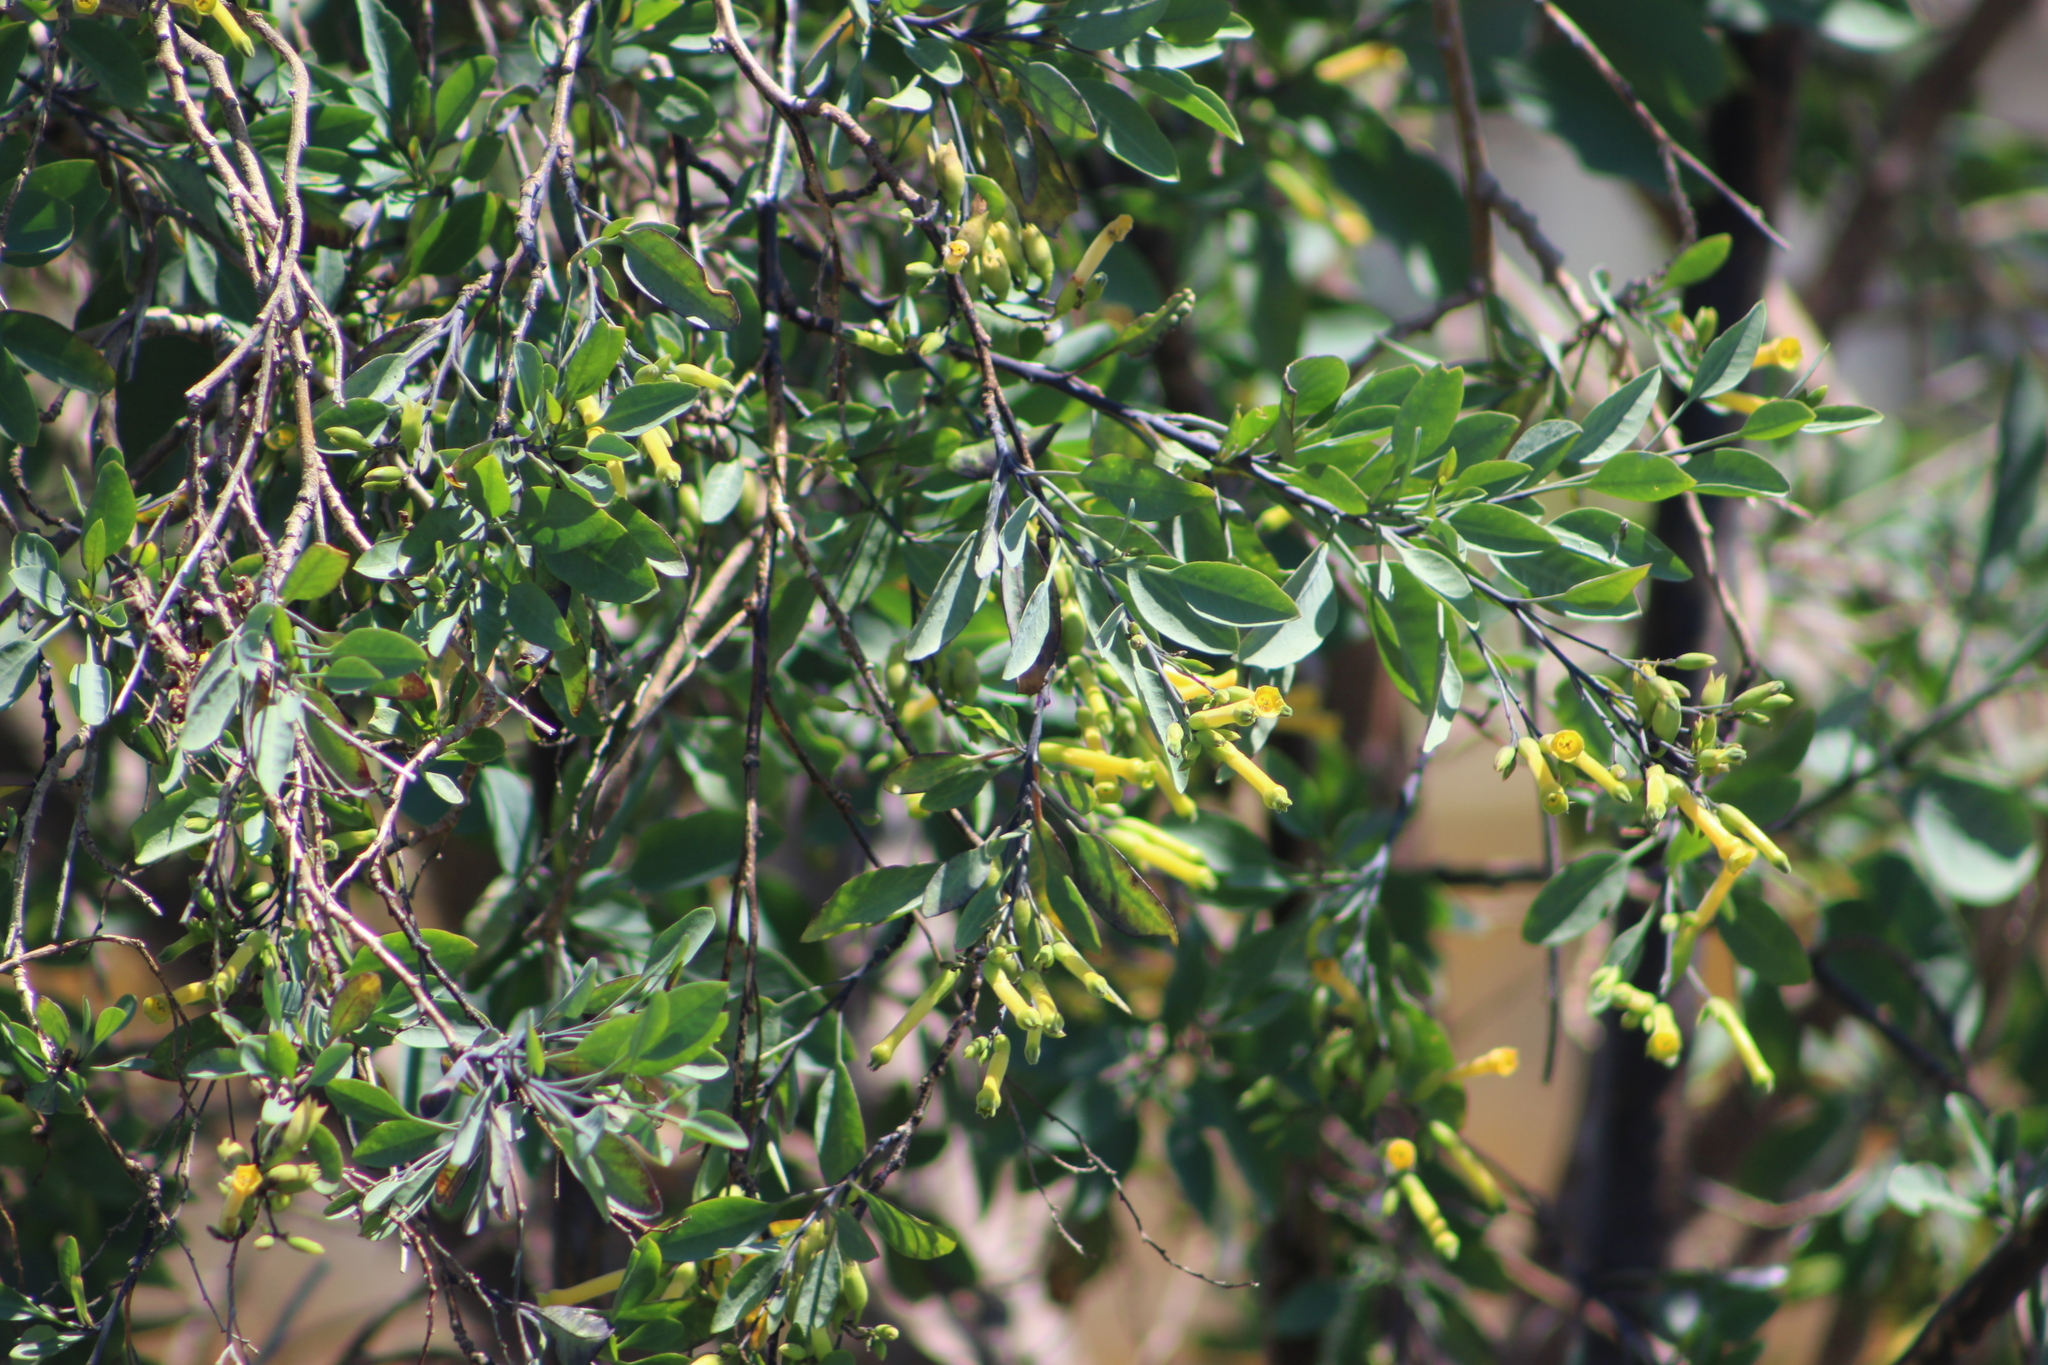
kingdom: Plantae
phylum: Tracheophyta
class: Magnoliopsida
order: Solanales
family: Solanaceae
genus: Nicotiana
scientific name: Nicotiana glauca
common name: Tree tobacco
